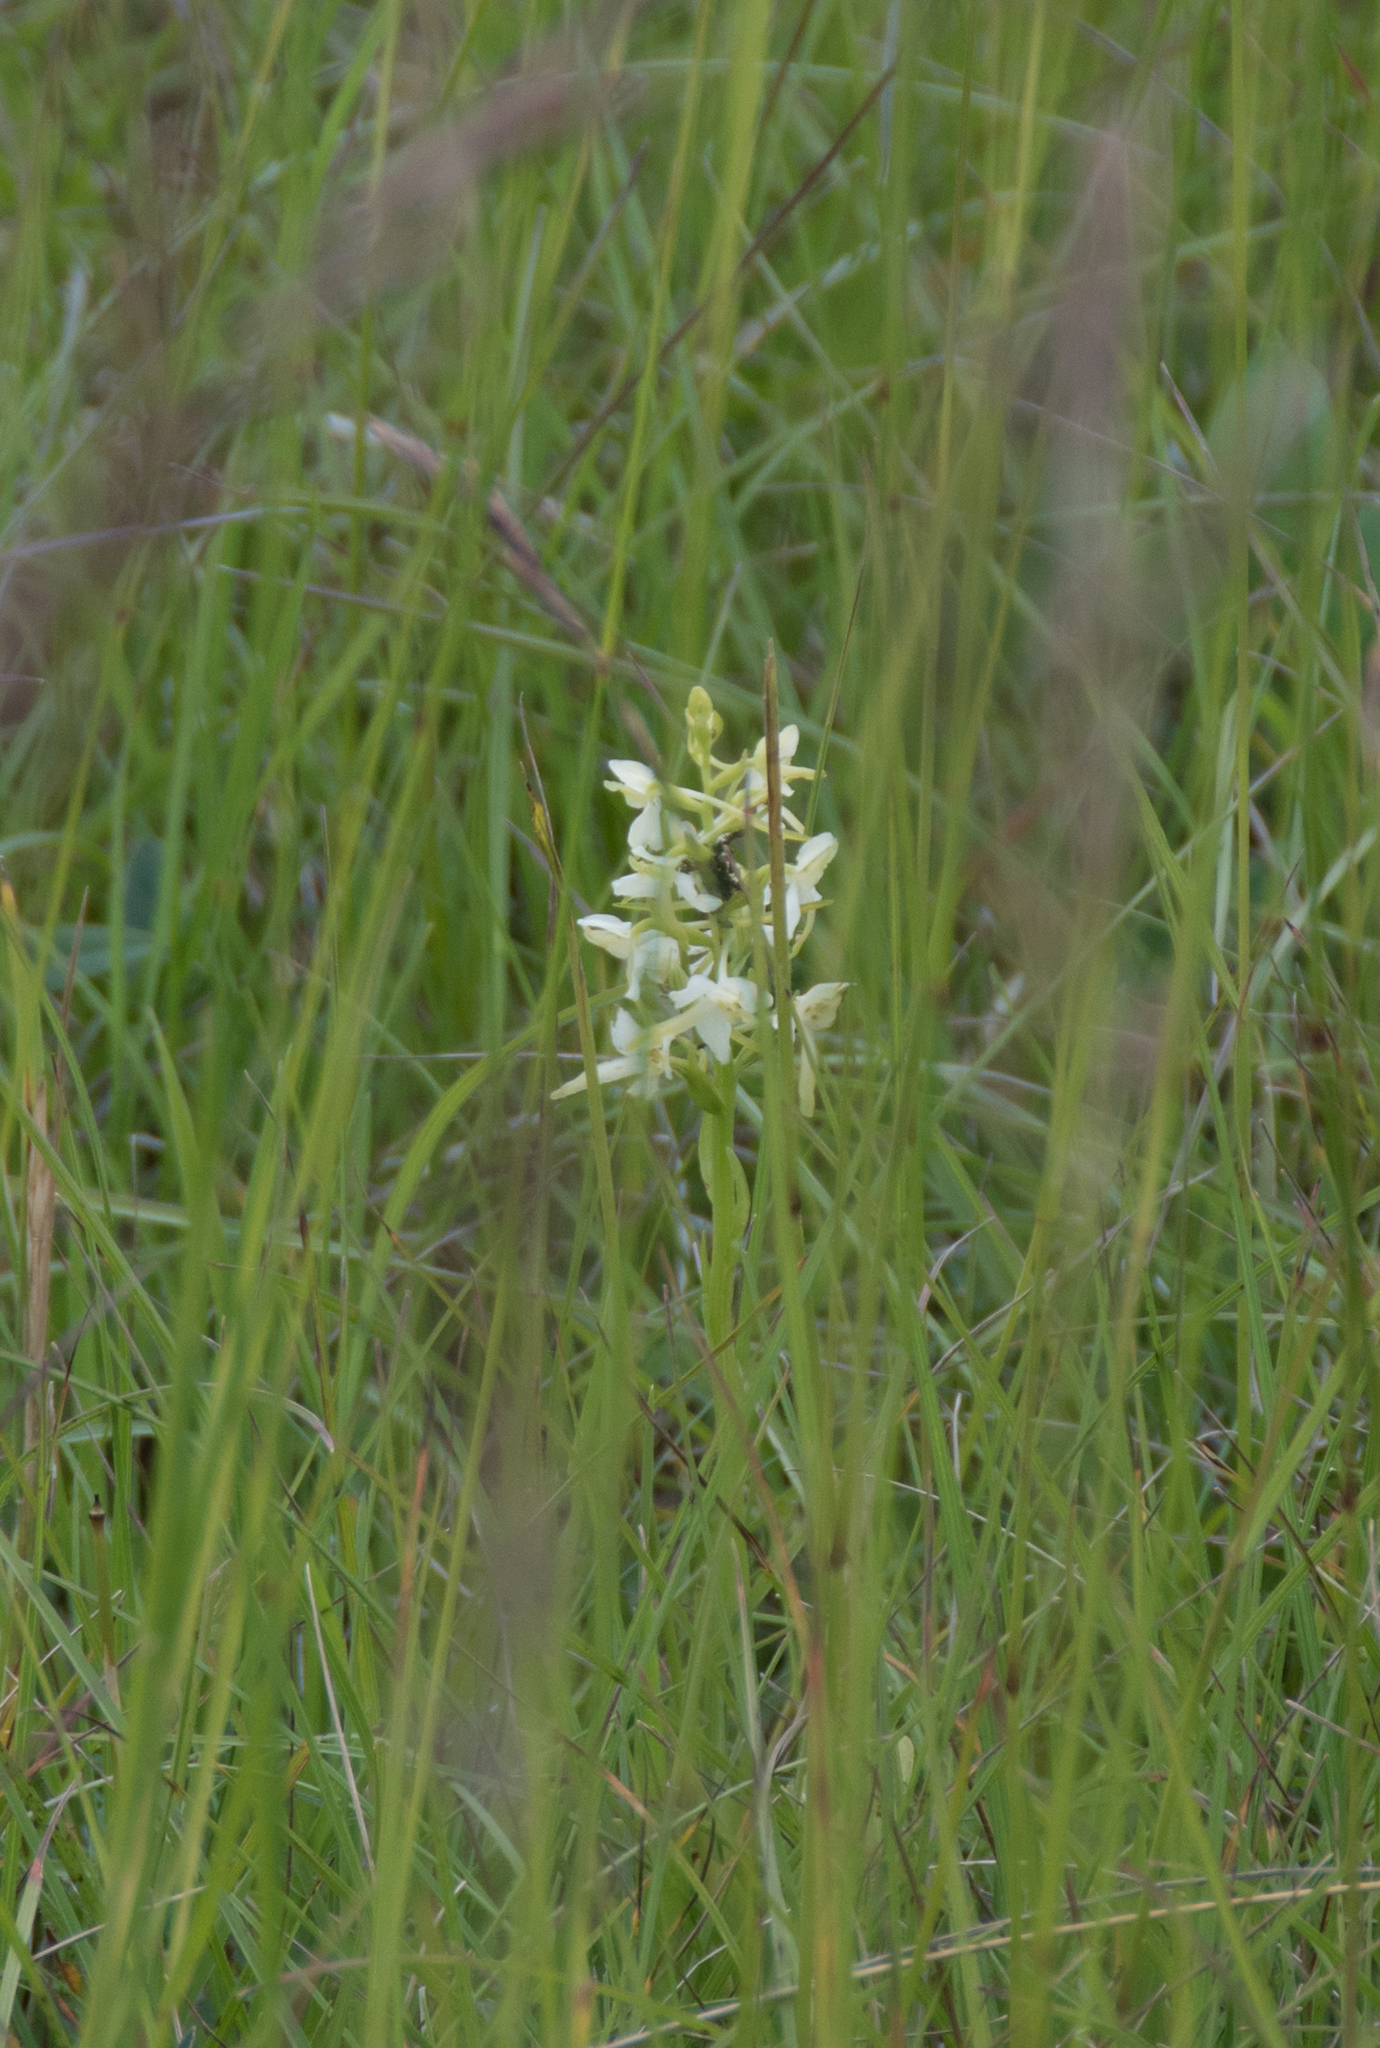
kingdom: Plantae
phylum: Tracheophyta
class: Liliopsida
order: Asparagales
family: Orchidaceae
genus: Platanthera
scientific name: Platanthera bifolia
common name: Lesser butterfly-orchid
